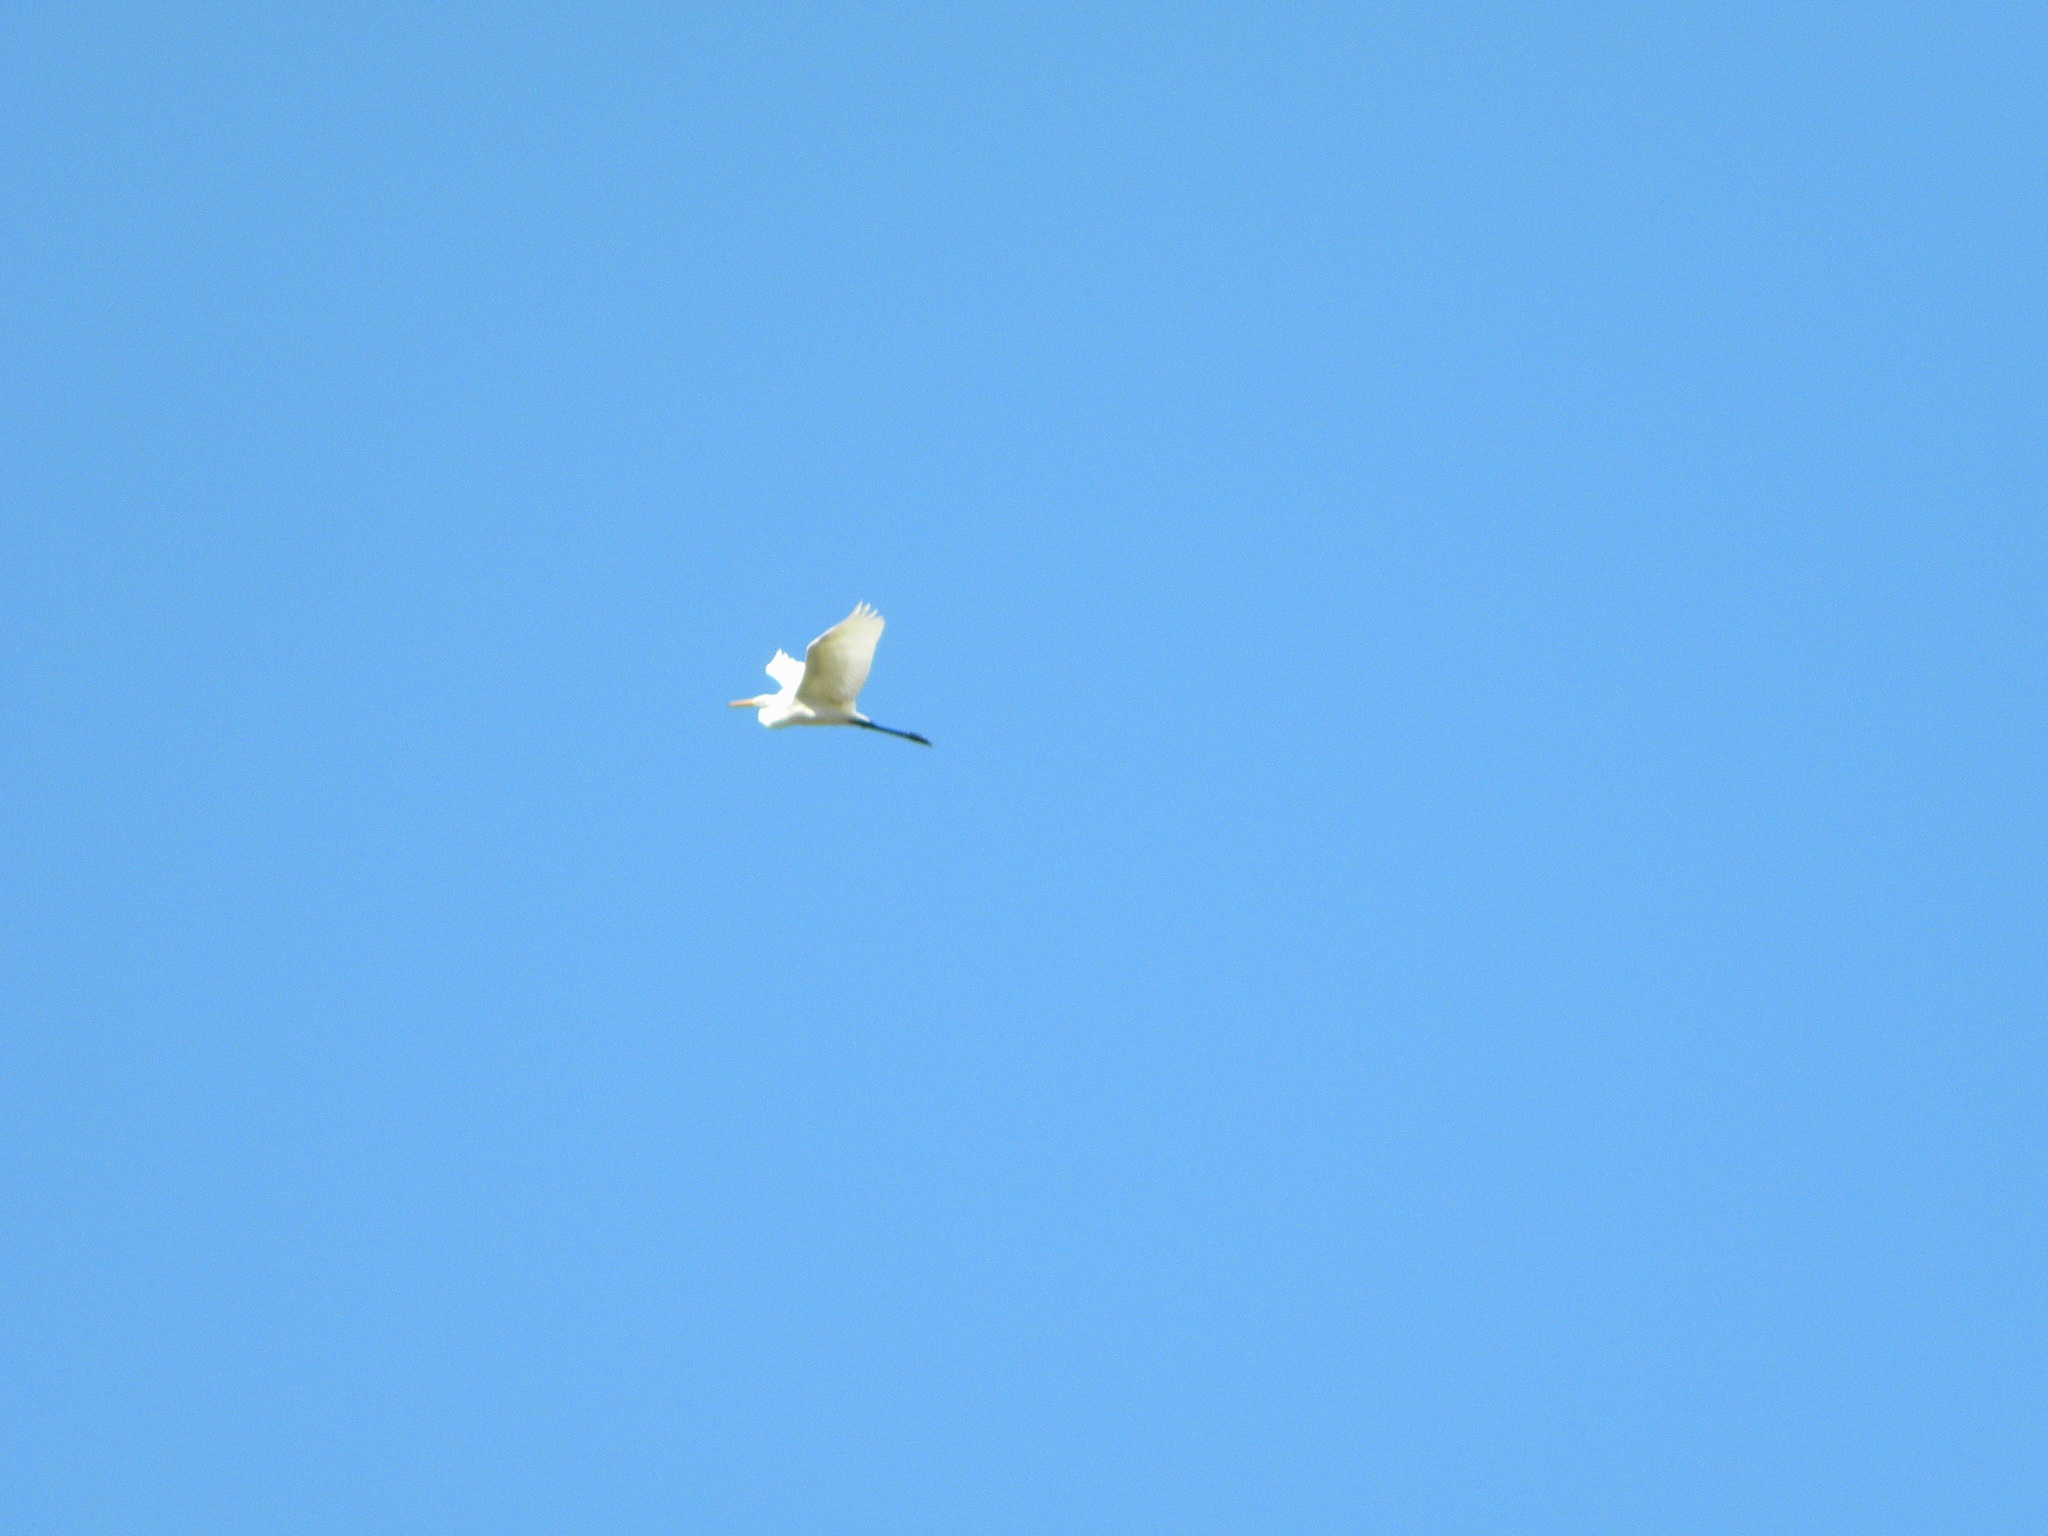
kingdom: Animalia
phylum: Chordata
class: Aves
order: Pelecaniformes
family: Ardeidae
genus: Ardea
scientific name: Ardea alba
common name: Great egret
